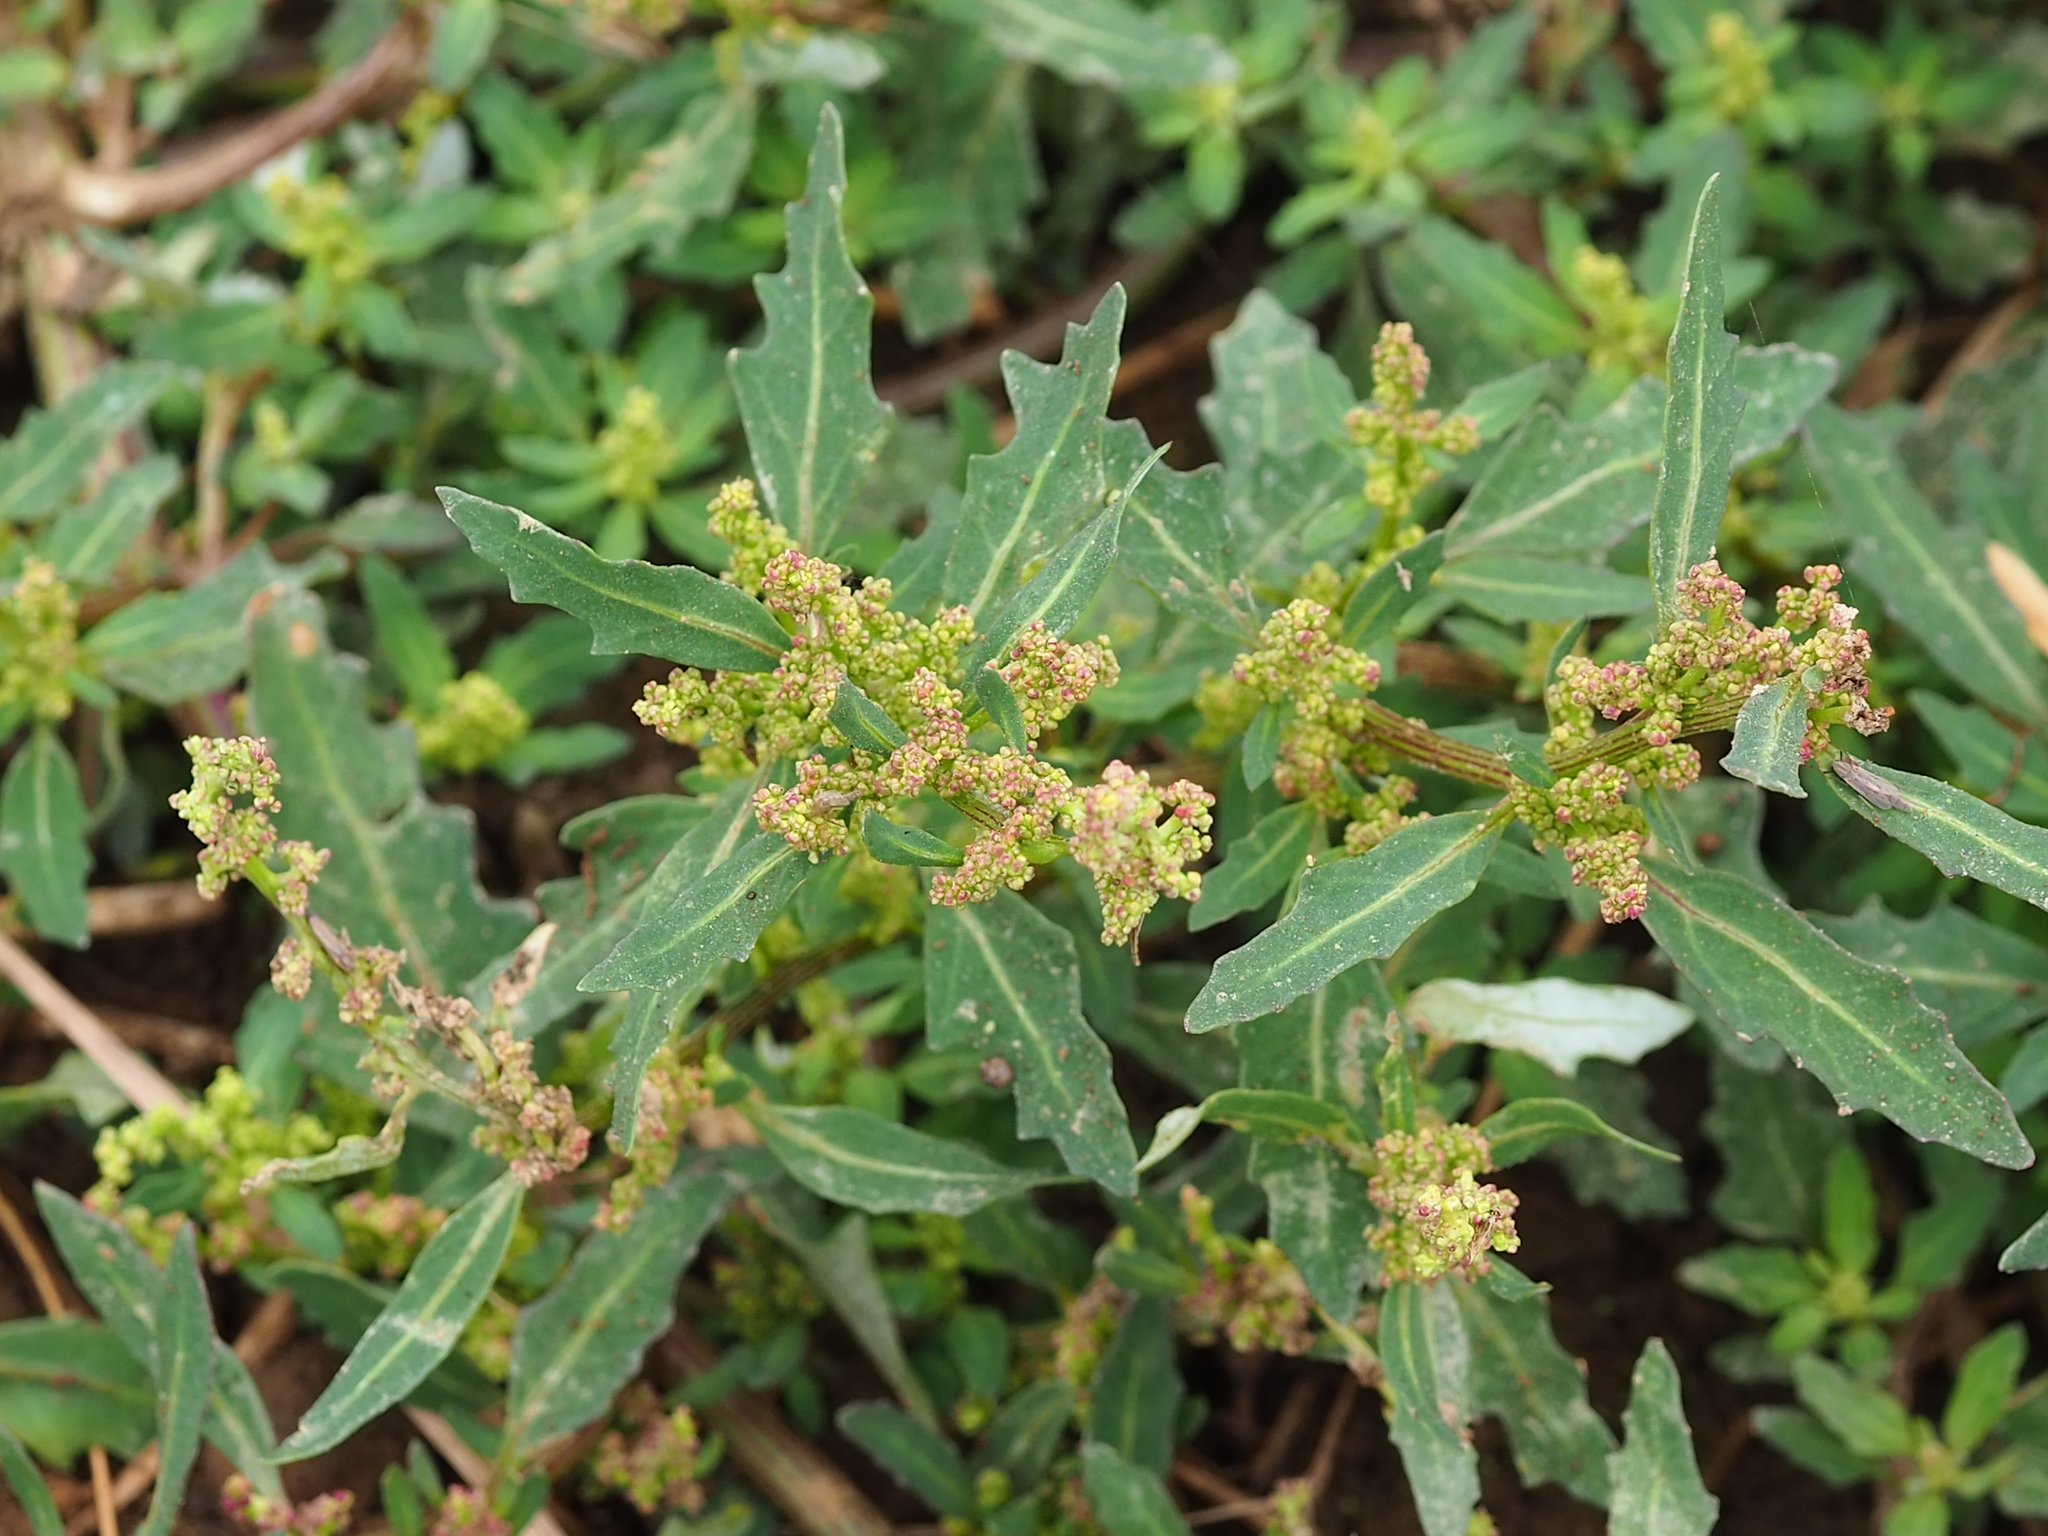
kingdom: Plantae
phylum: Tracheophyta
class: Magnoliopsida
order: Caryophyllales
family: Amaranthaceae
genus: Oxybasis
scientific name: Oxybasis glauca
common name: Glaucous goosefoot
